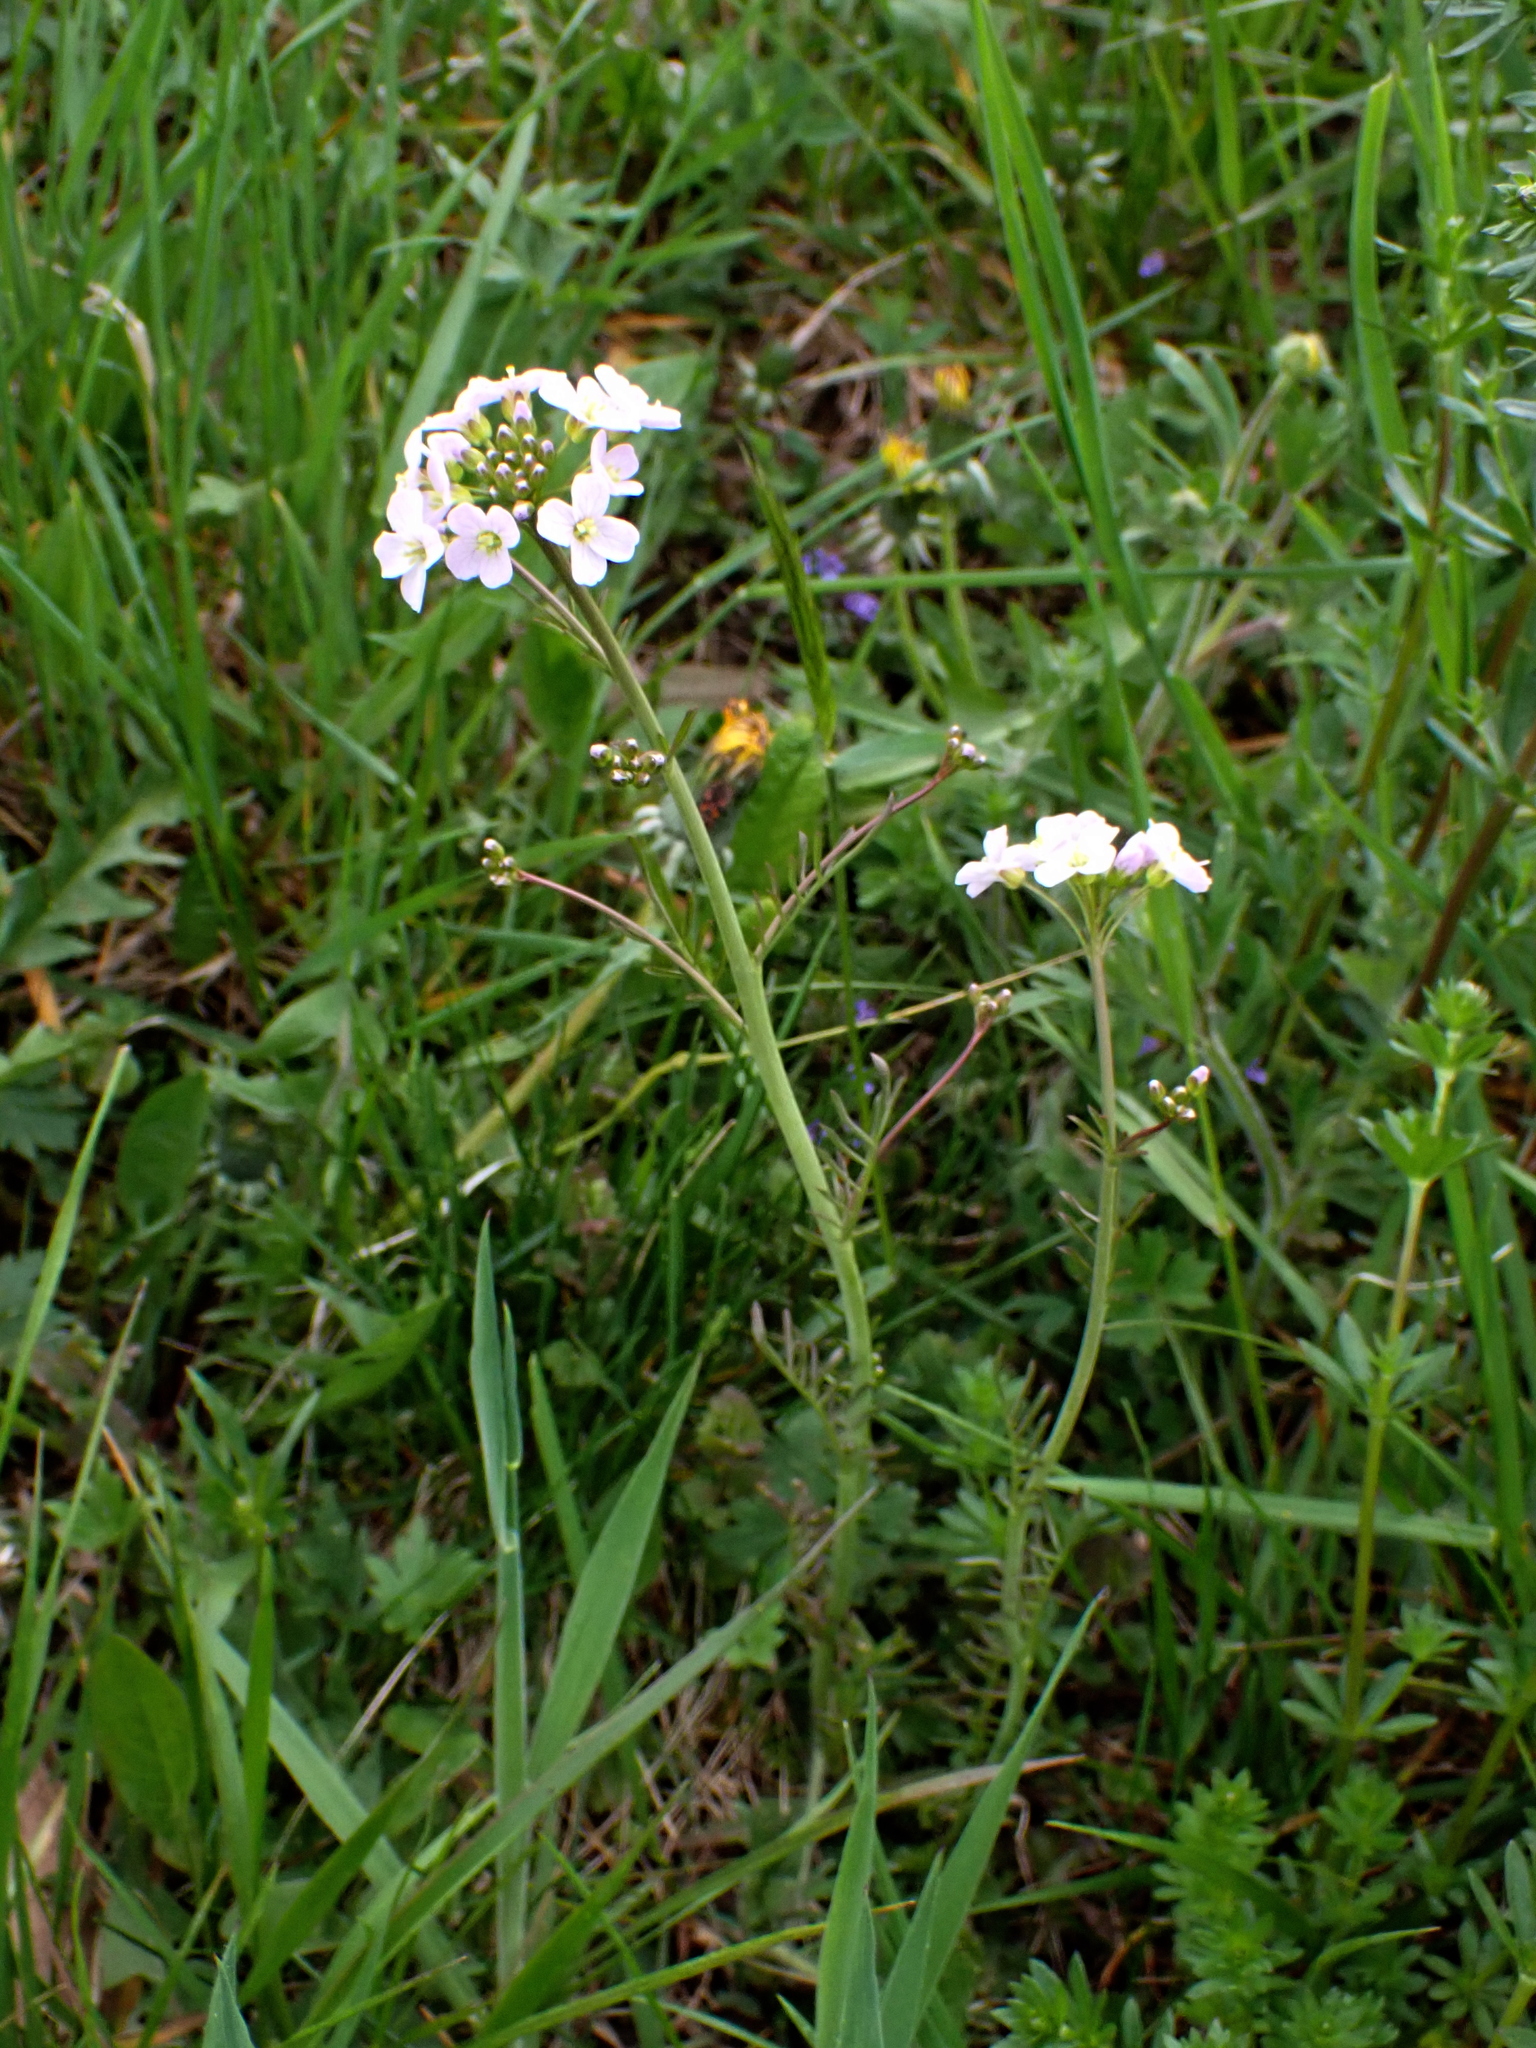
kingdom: Plantae
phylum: Tracheophyta
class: Magnoliopsida
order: Brassicales
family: Brassicaceae
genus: Cardamine
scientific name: Cardamine pratensis
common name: Cuckoo flower
